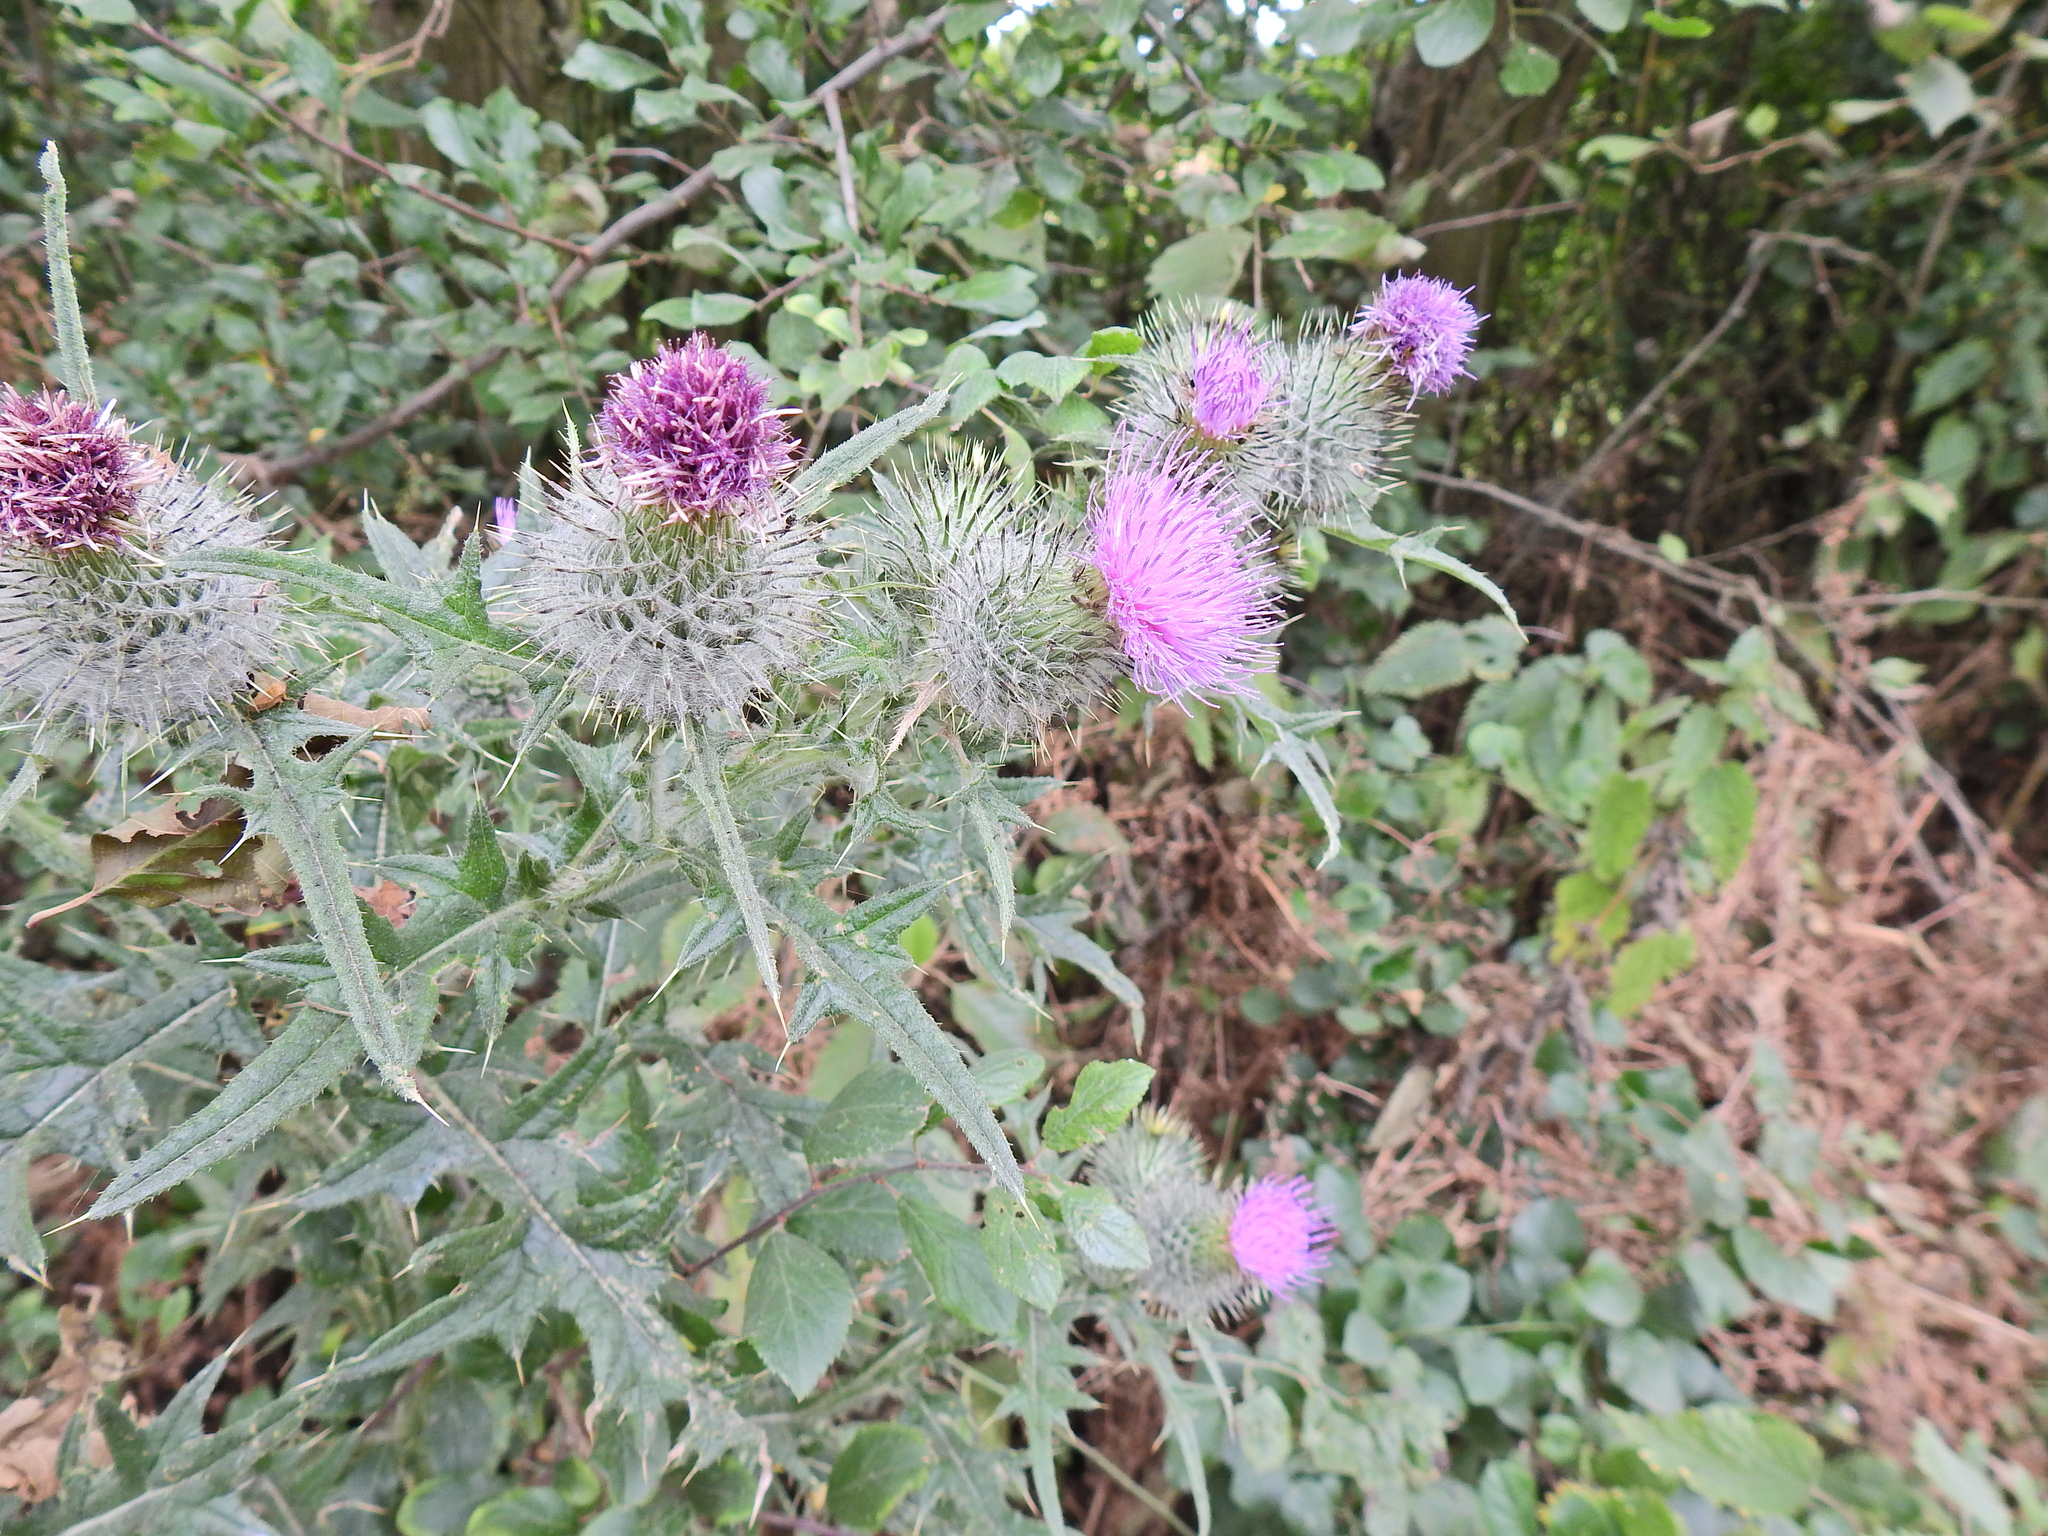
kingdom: Plantae
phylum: Tracheophyta
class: Magnoliopsida
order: Asterales
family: Asteraceae
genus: Cirsium
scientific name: Cirsium vulgare
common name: Bull thistle
